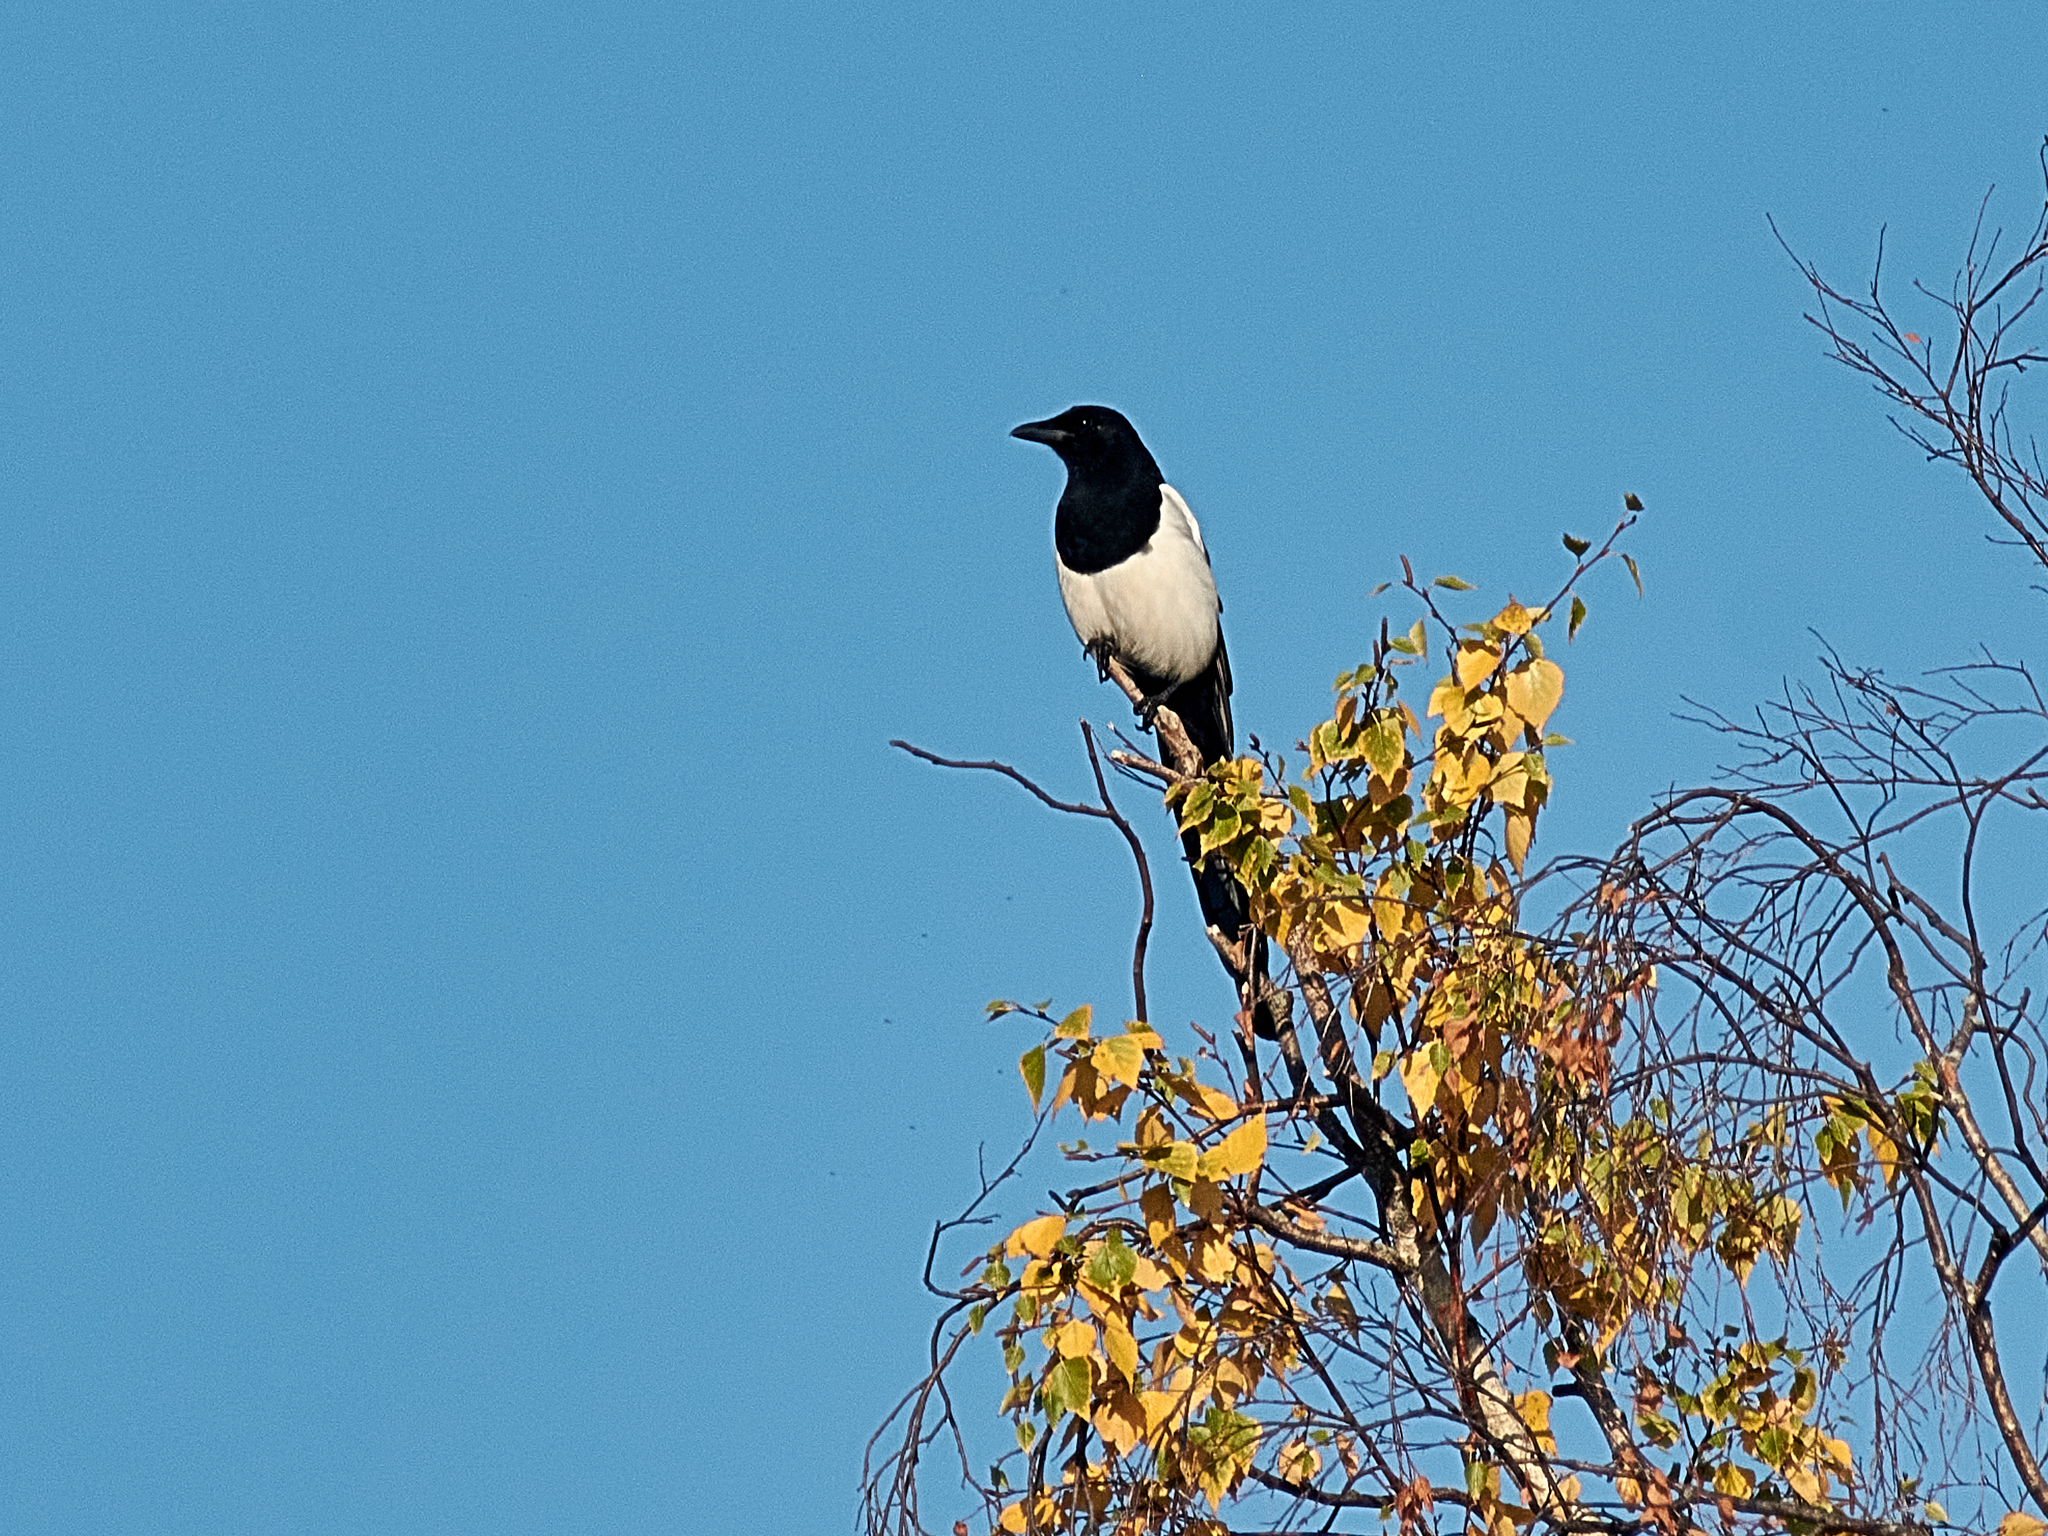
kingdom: Animalia
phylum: Chordata
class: Aves
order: Passeriformes
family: Corvidae
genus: Pica
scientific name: Pica pica
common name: Eurasian magpie
